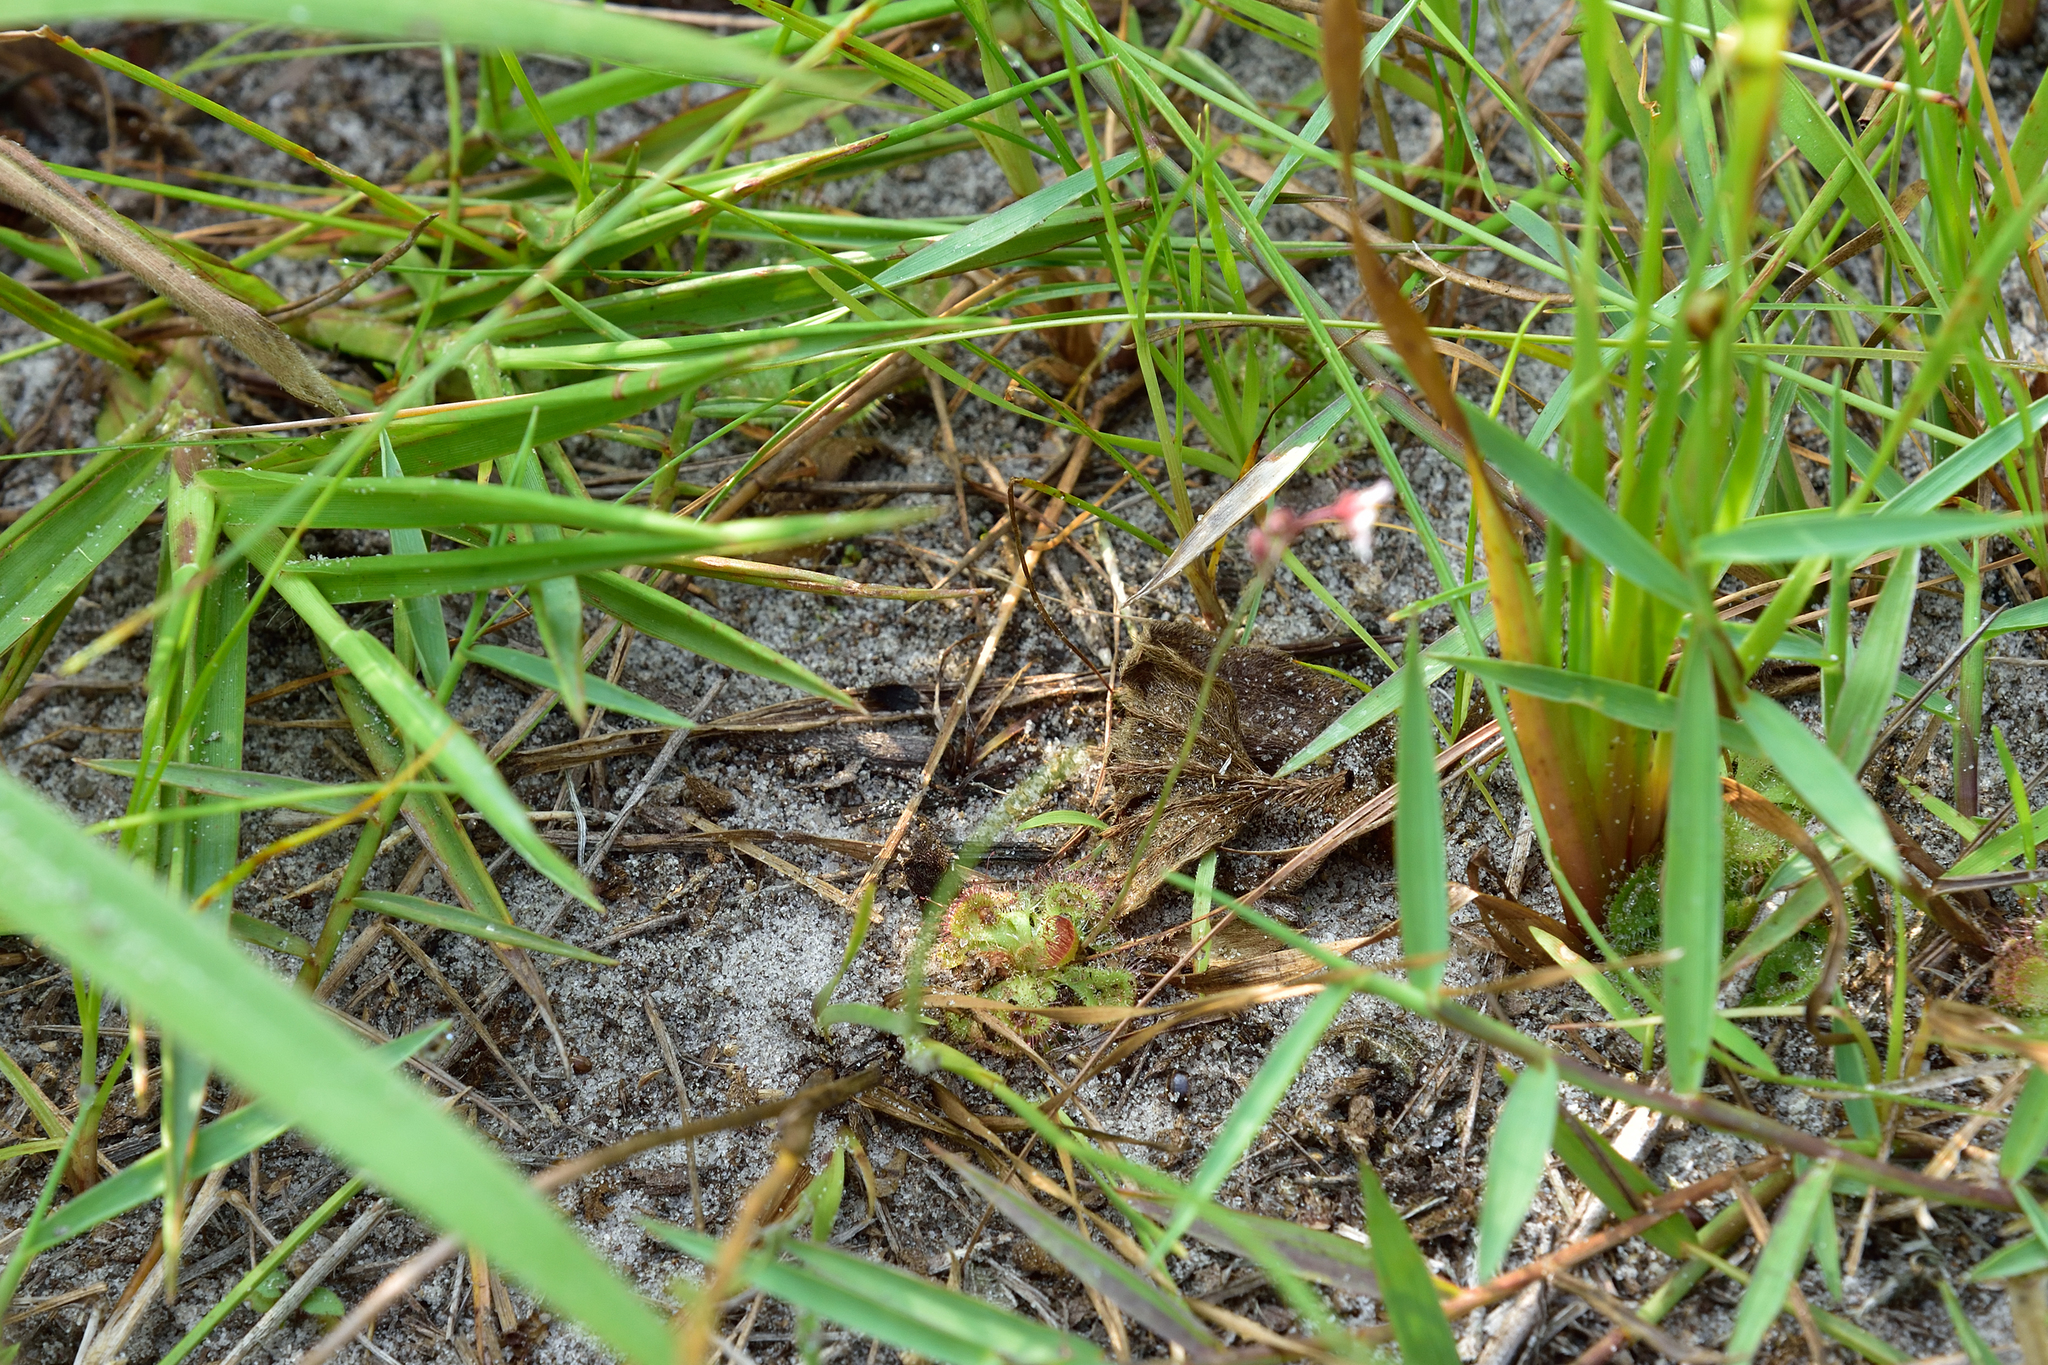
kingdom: Plantae
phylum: Tracheophyta
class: Magnoliopsida
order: Caryophyllales
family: Droseraceae
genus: Drosera
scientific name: Drosera spatulata
